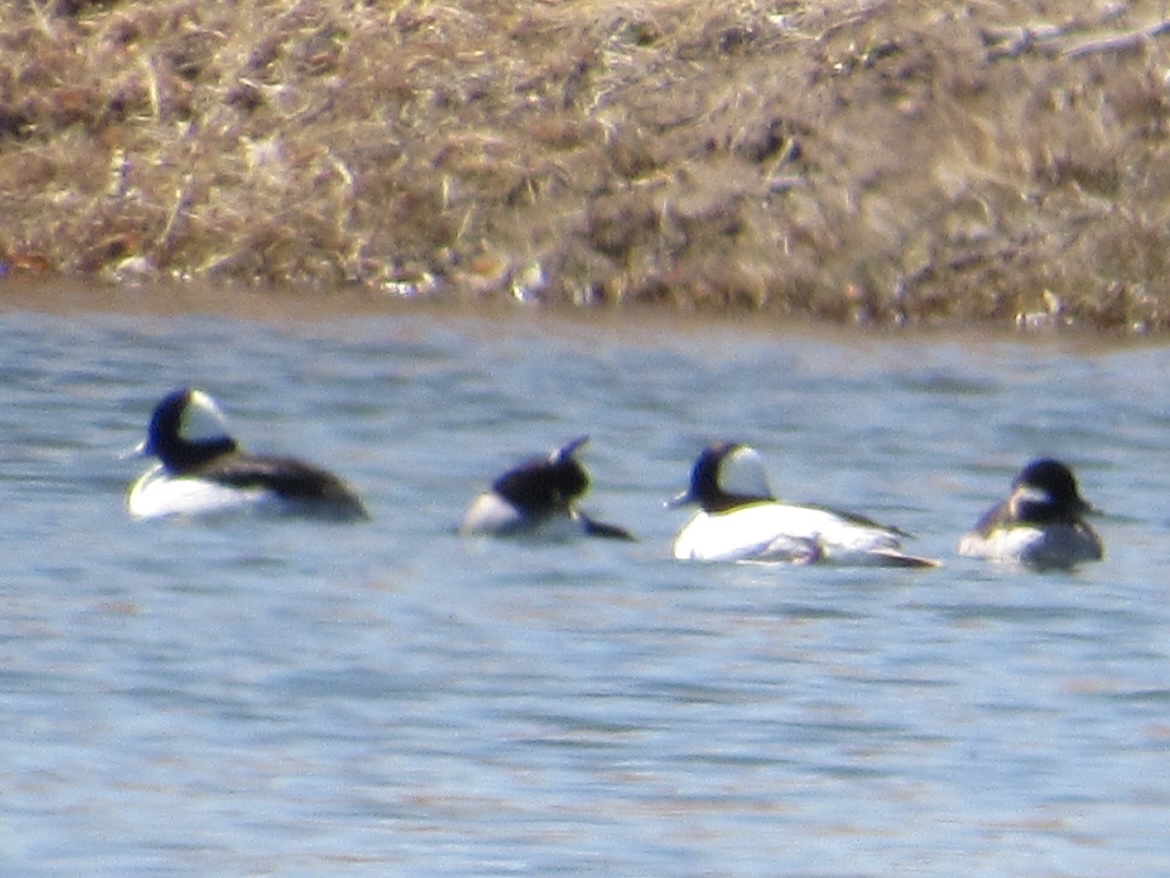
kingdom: Animalia
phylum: Chordata
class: Aves
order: Anseriformes
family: Anatidae
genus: Bucephala
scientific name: Bucephala albeola
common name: Bufflehead
